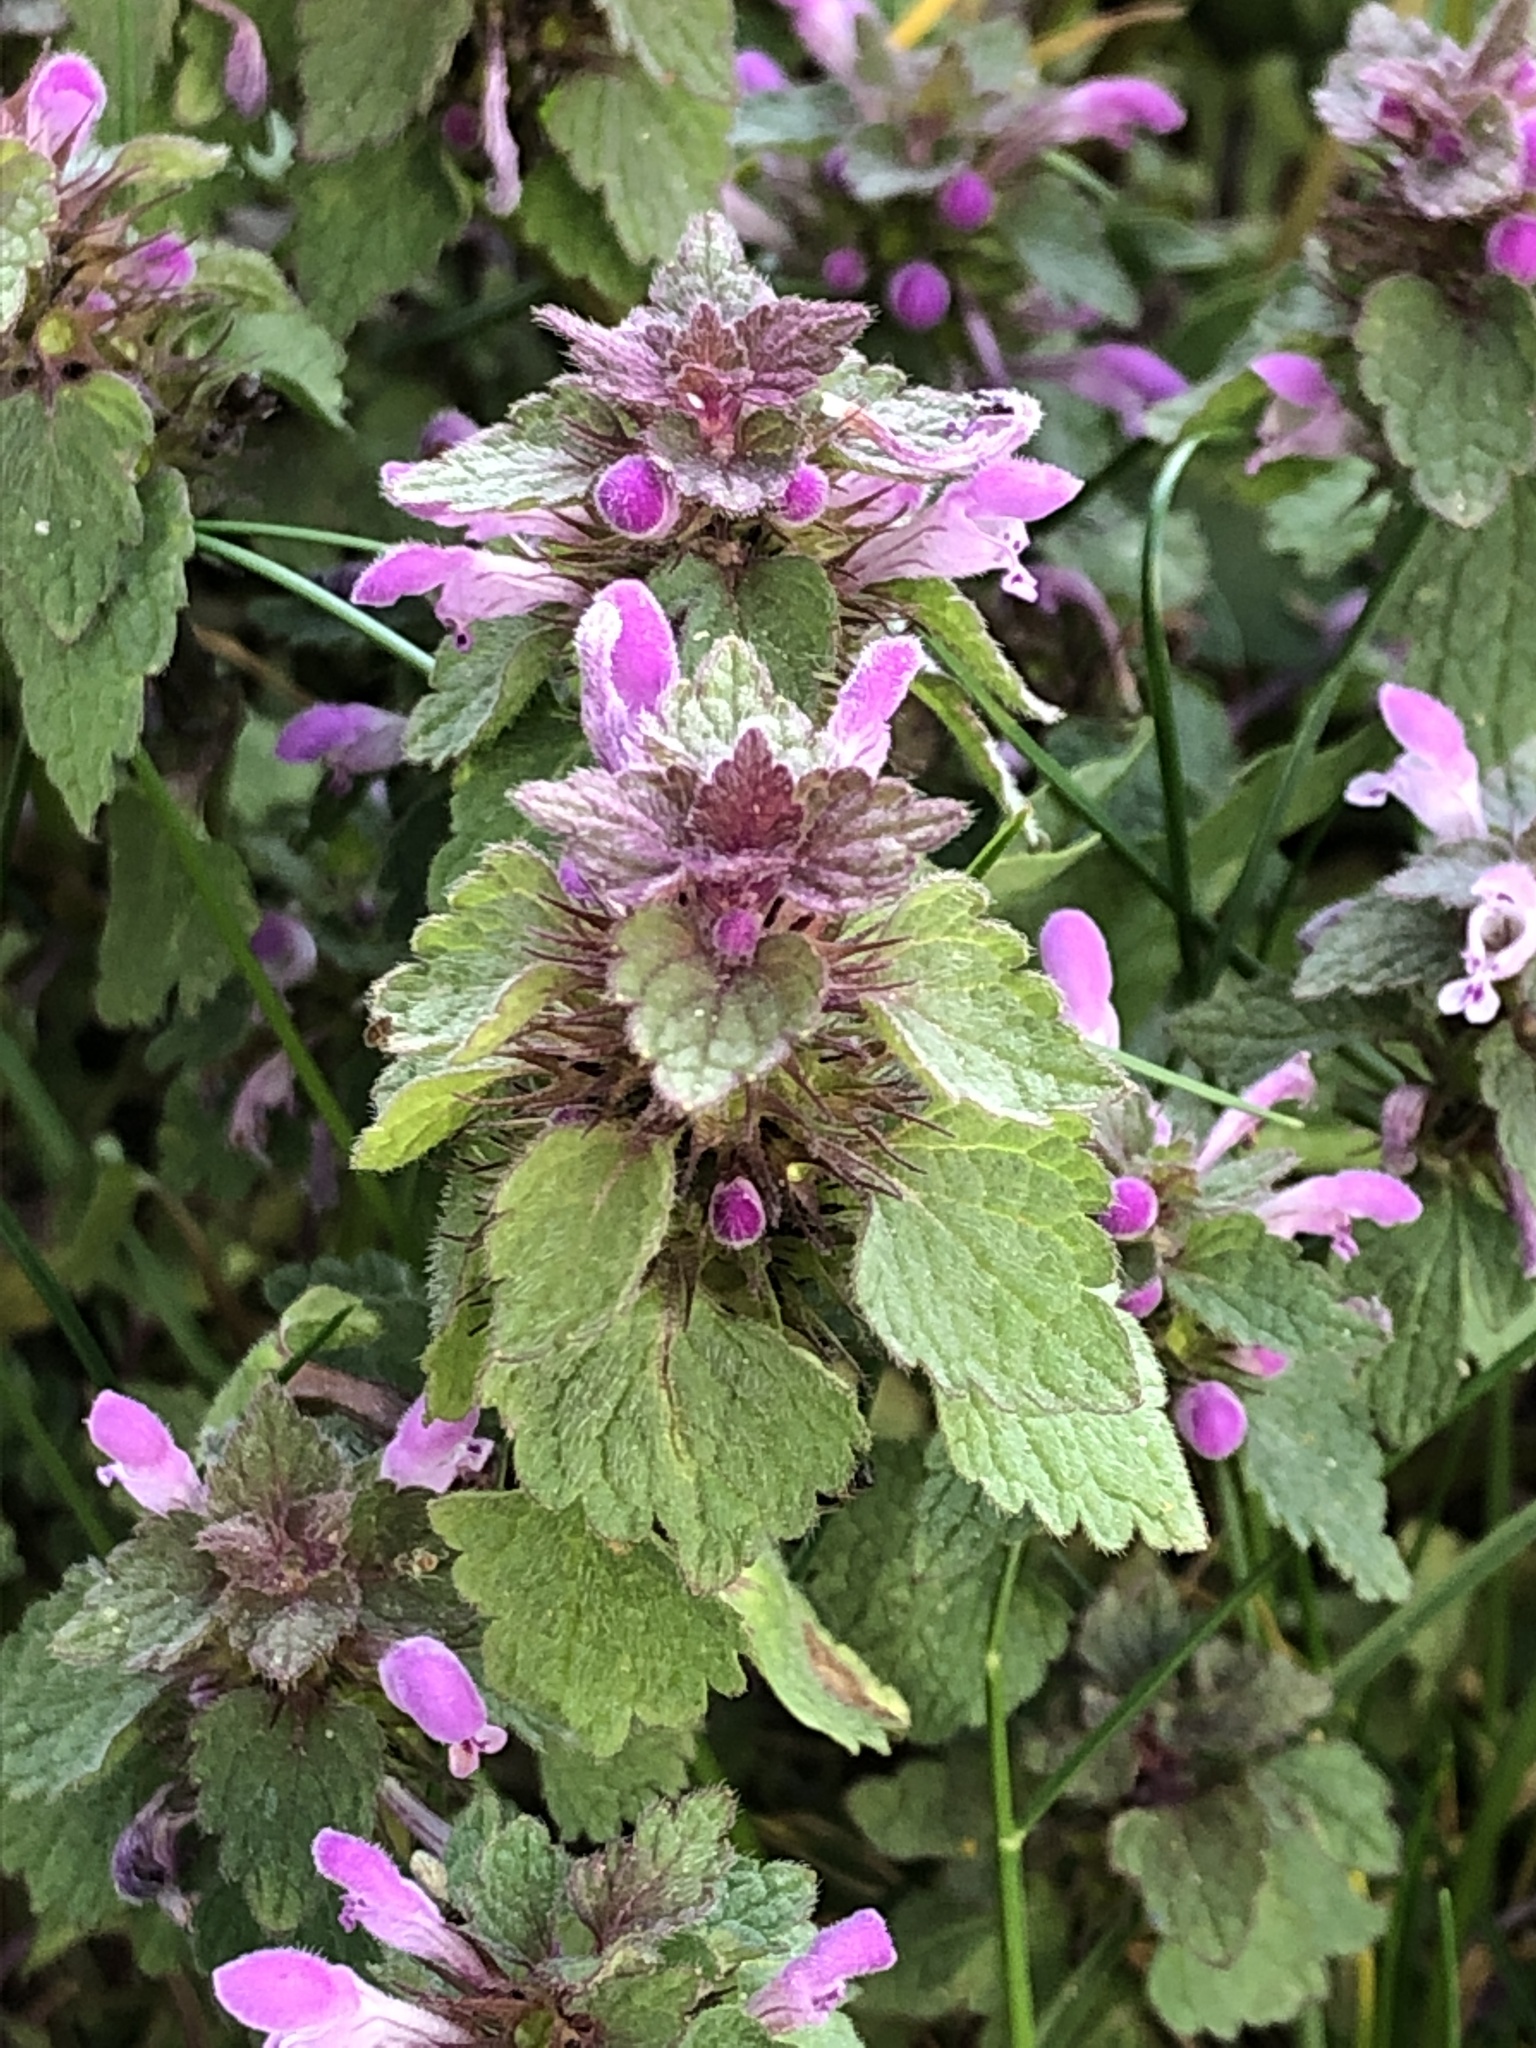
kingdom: Plantae
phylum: Tracheophyta
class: Magnoliopsida
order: Lamiales
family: Lamiaceae
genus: Lamium
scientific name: Lamium purpureum
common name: Red dead-nettle
